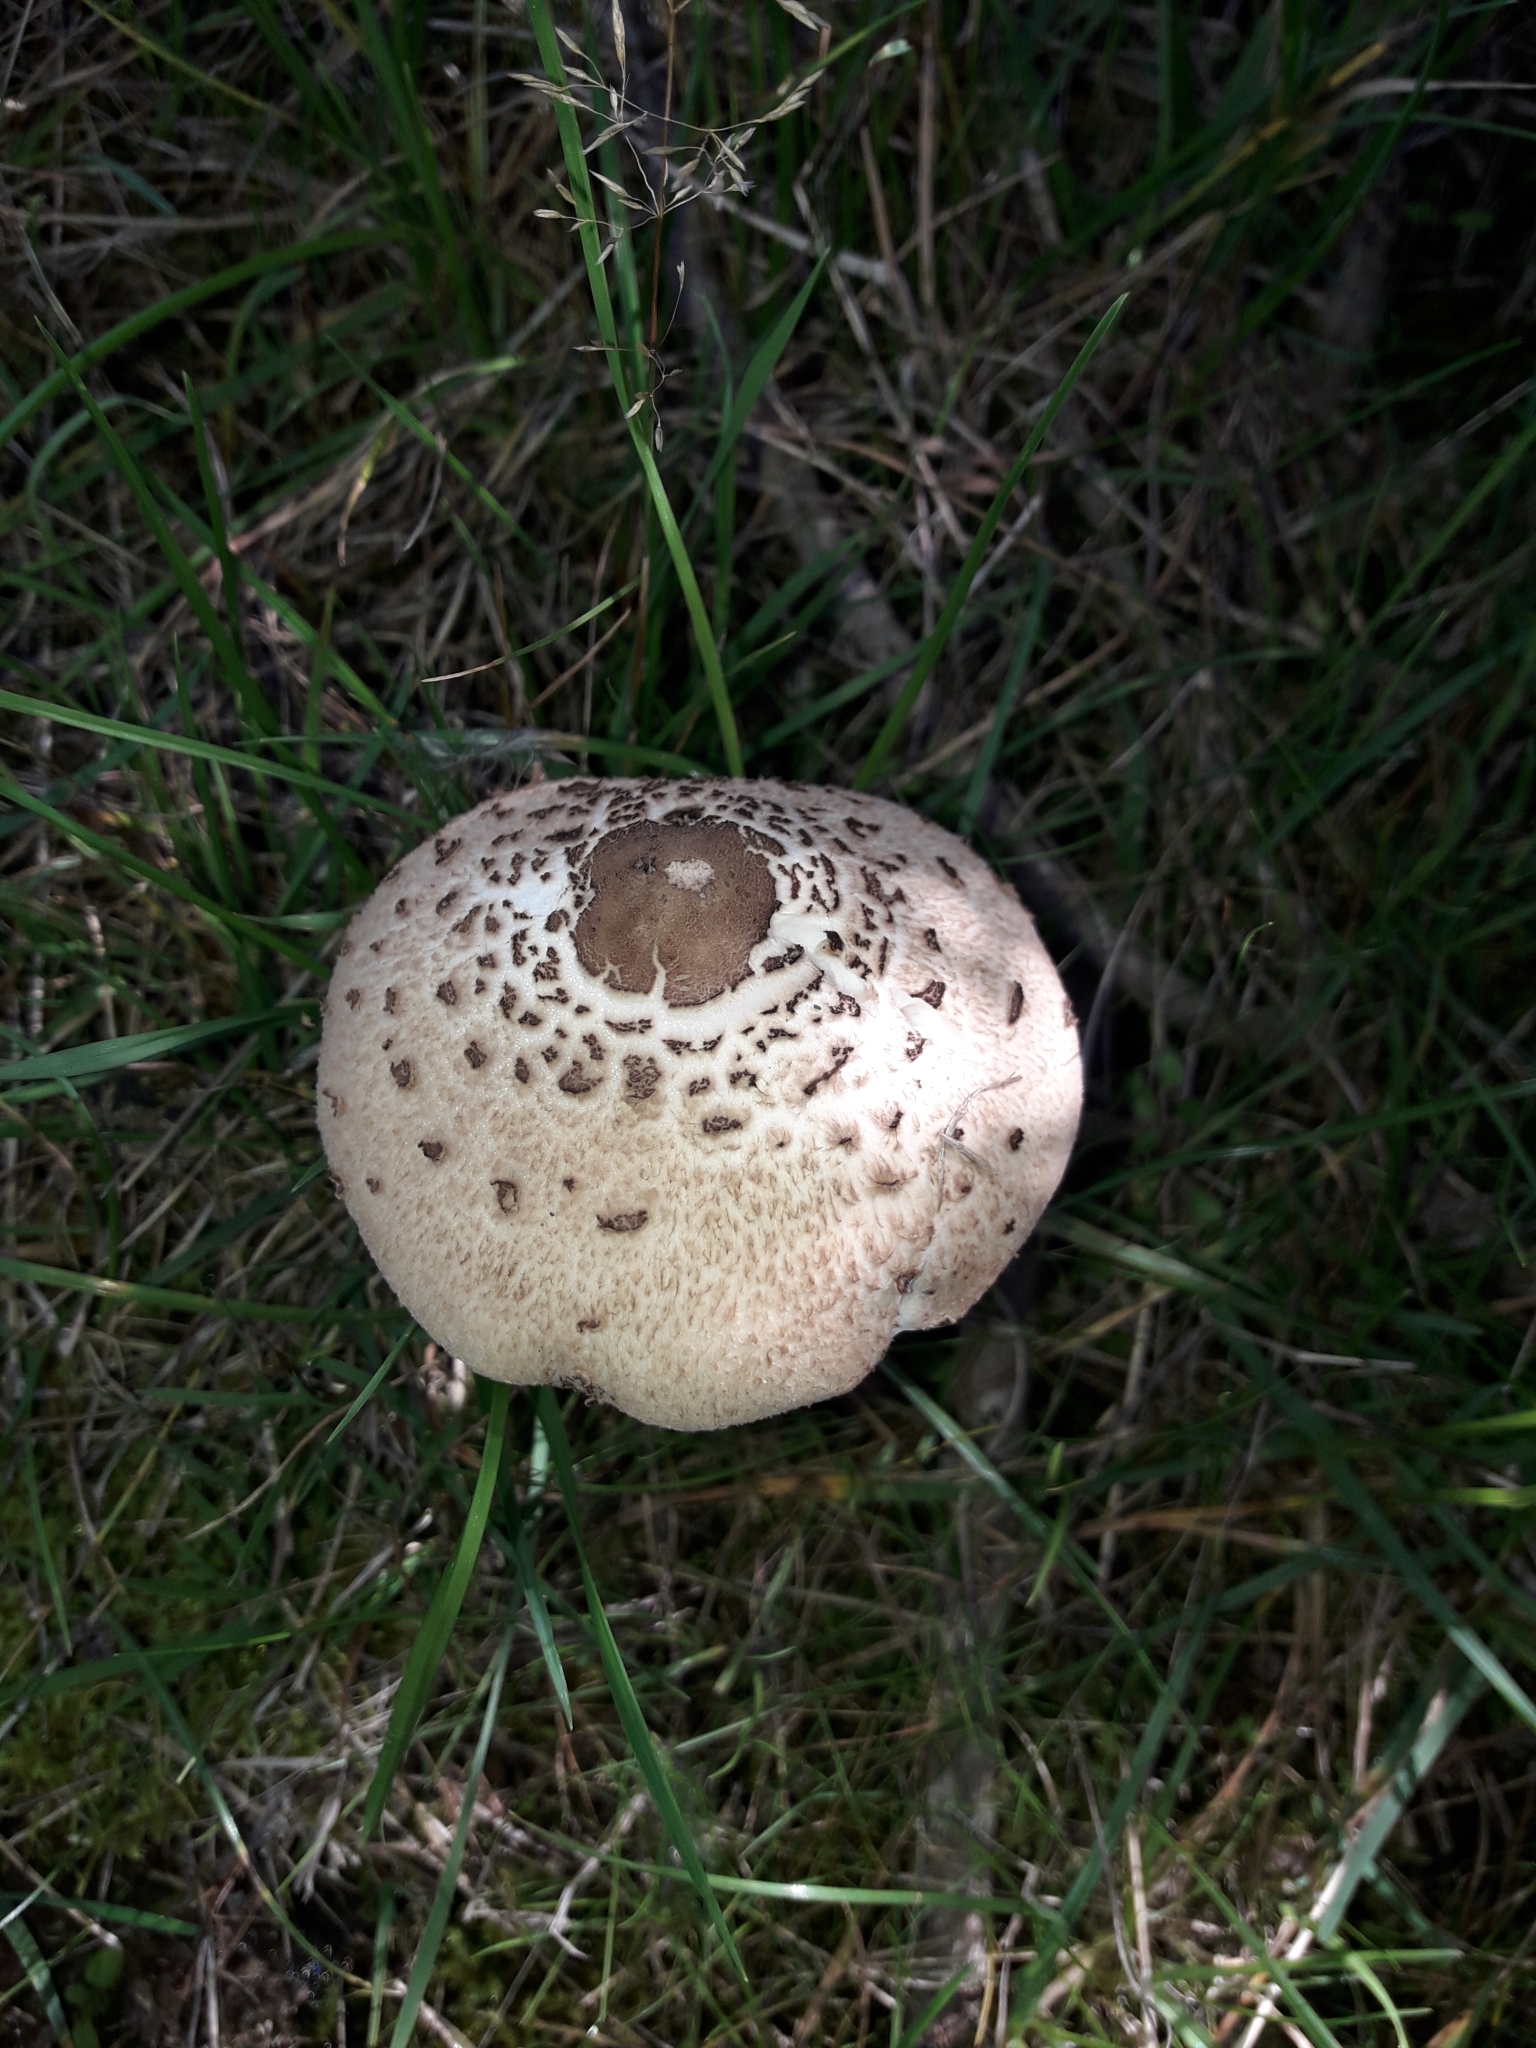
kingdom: Fungi
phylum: Basidiomycota
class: Agaricomycetes
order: Agaricales
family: Agaricaceae
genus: Macrolepiota
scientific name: Macrolepiota clelandii
